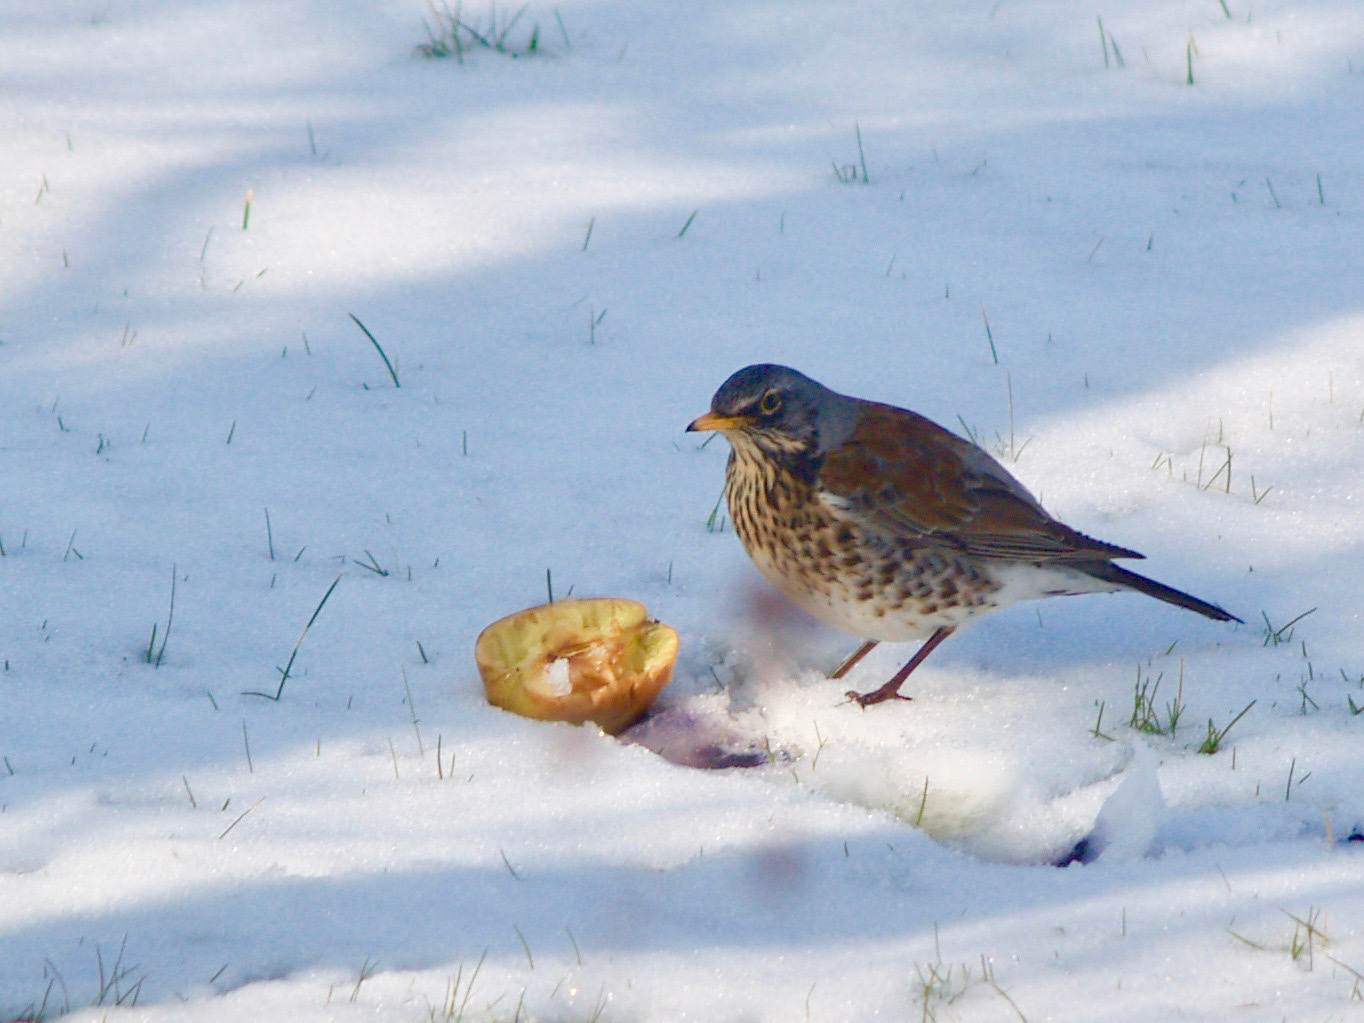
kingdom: Animalia
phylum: Chordata
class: Aves
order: Passeriformes
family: Turdidae
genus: Turdus
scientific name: Turdus pilaris
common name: Fieldfare
